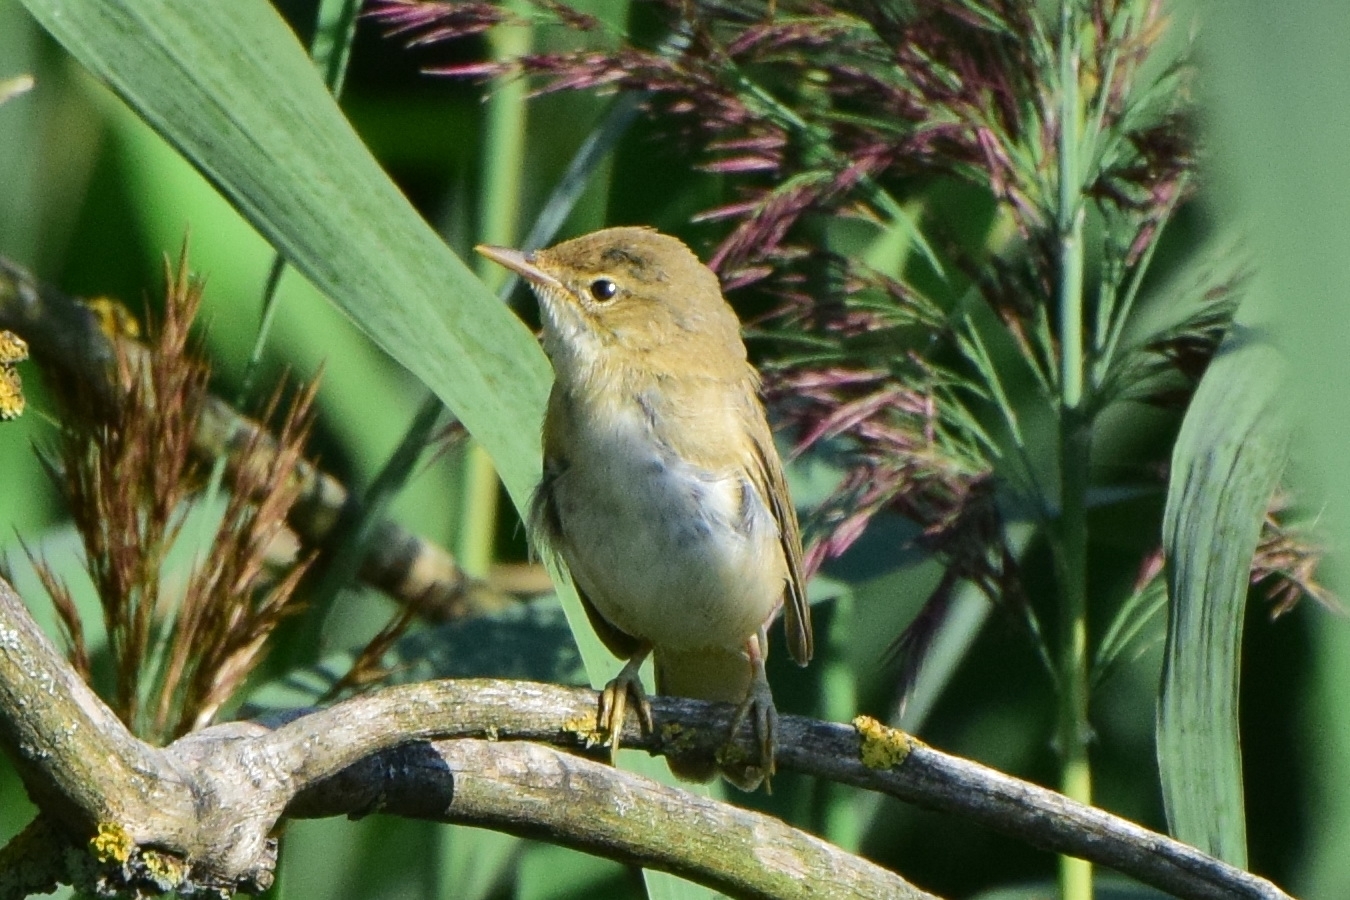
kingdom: Animalia
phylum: Chordata
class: Aves
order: Passeriformes
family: Acrocephalidae
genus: Acrocephalus
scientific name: Acrocephalus palustris
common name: Marsh warbler
